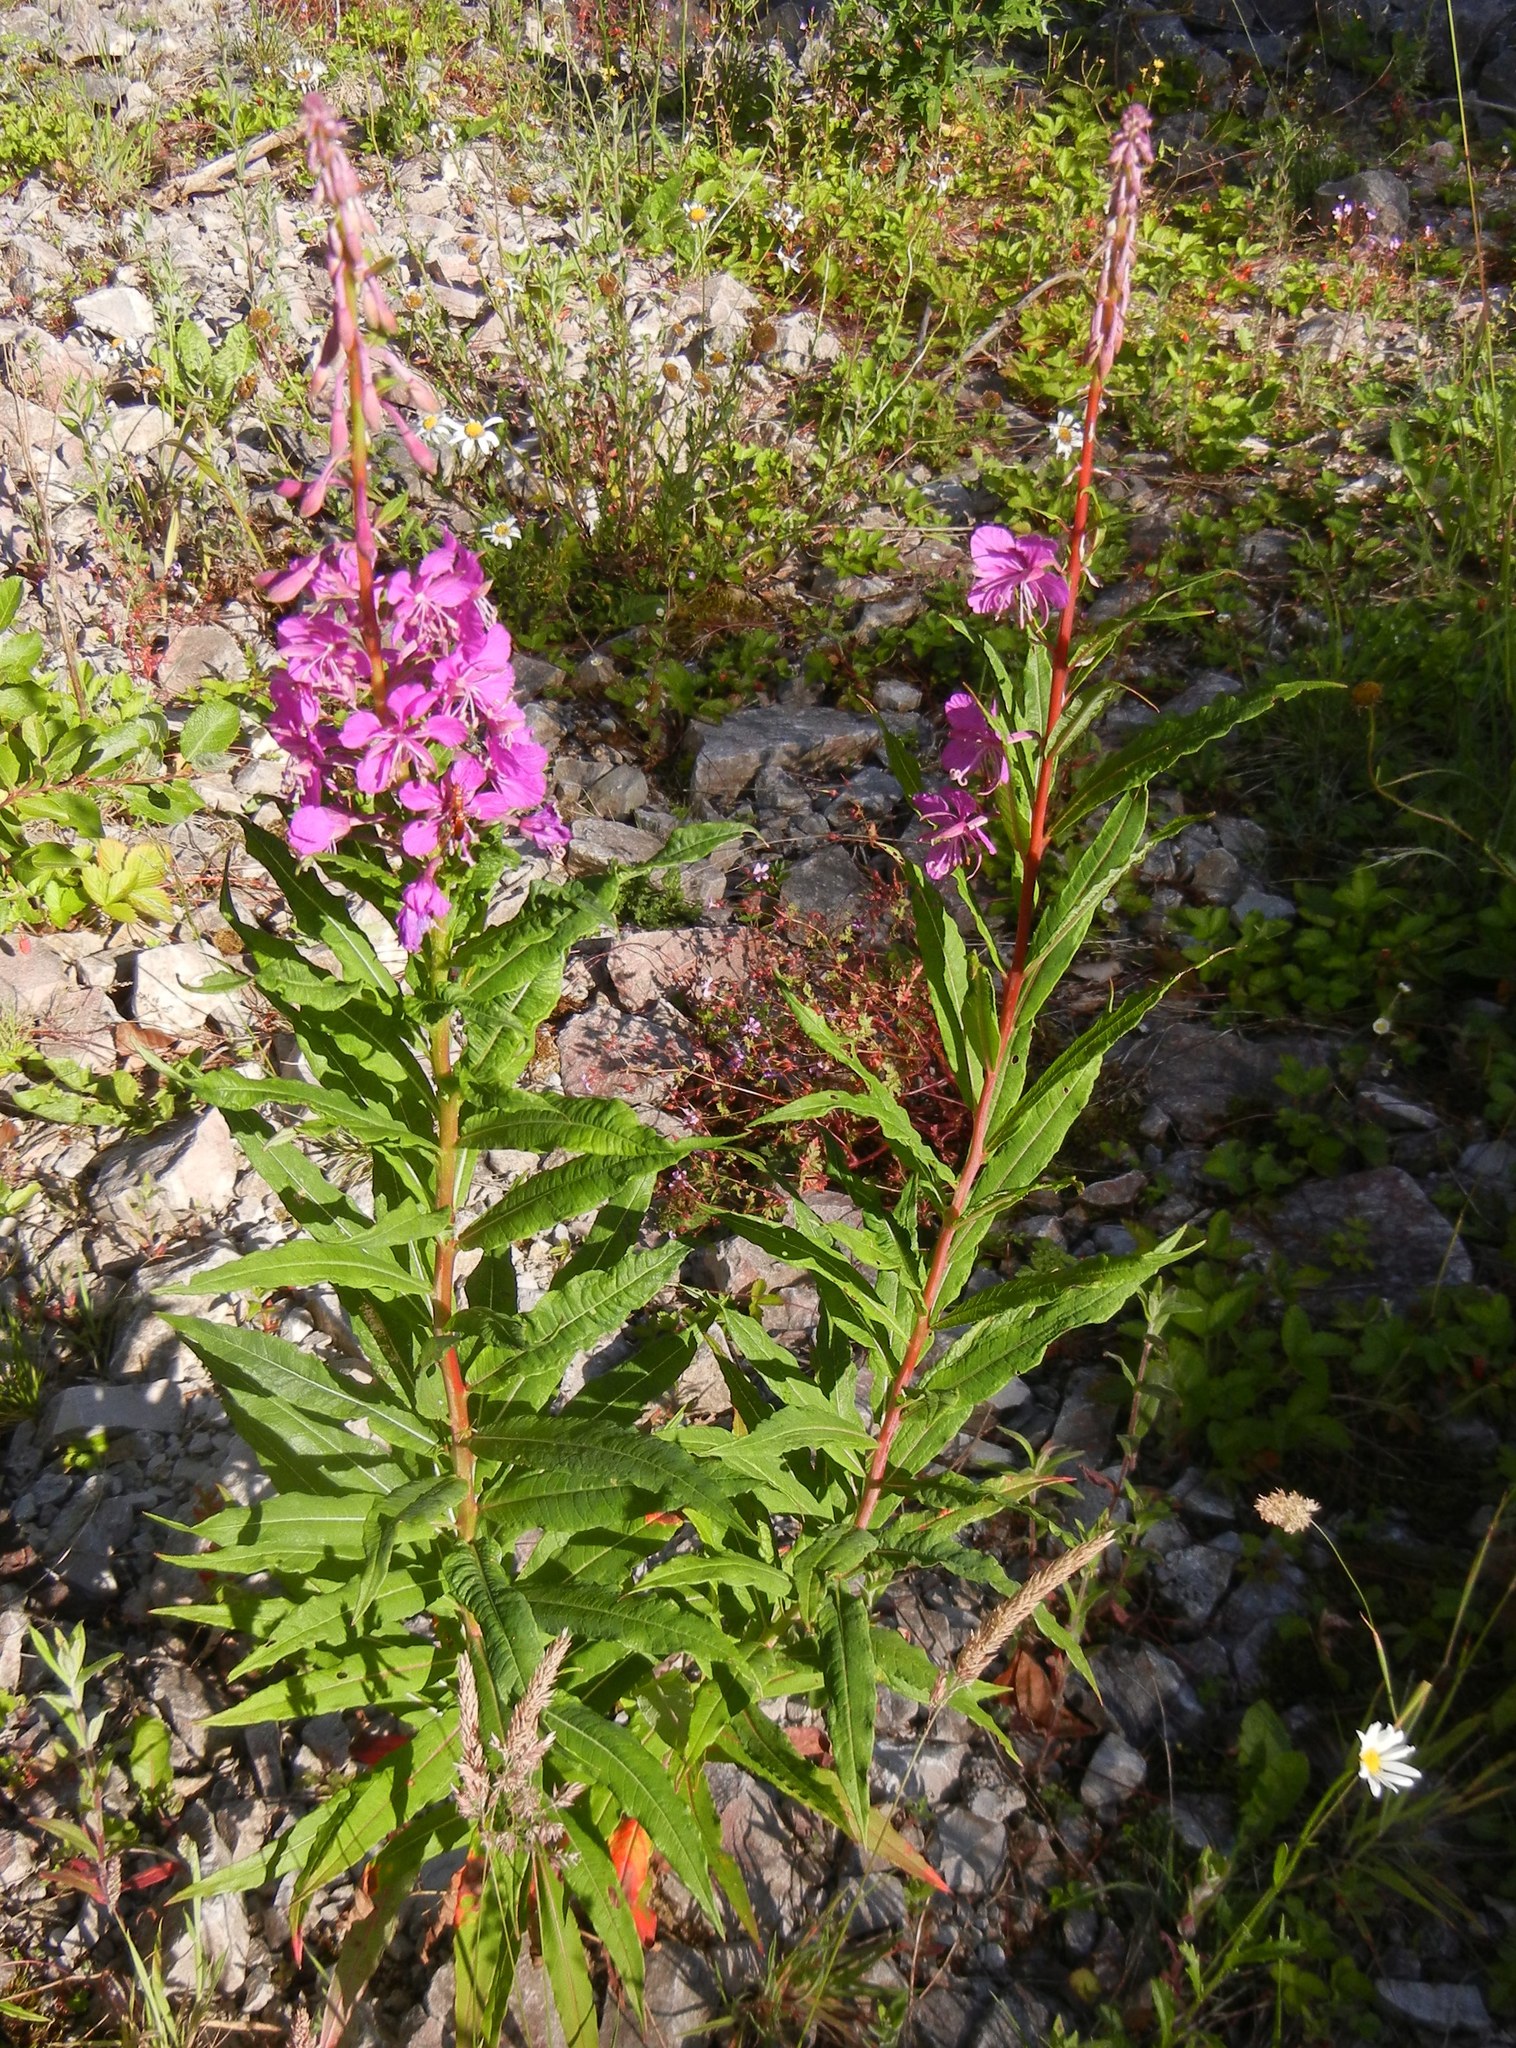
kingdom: Plantae
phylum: Tracheophyta
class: Magnoliopsida
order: Myrtales
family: Onagraceae
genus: Chamaenerion
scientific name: Chamaenerion angustifolium
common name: Fireweed
